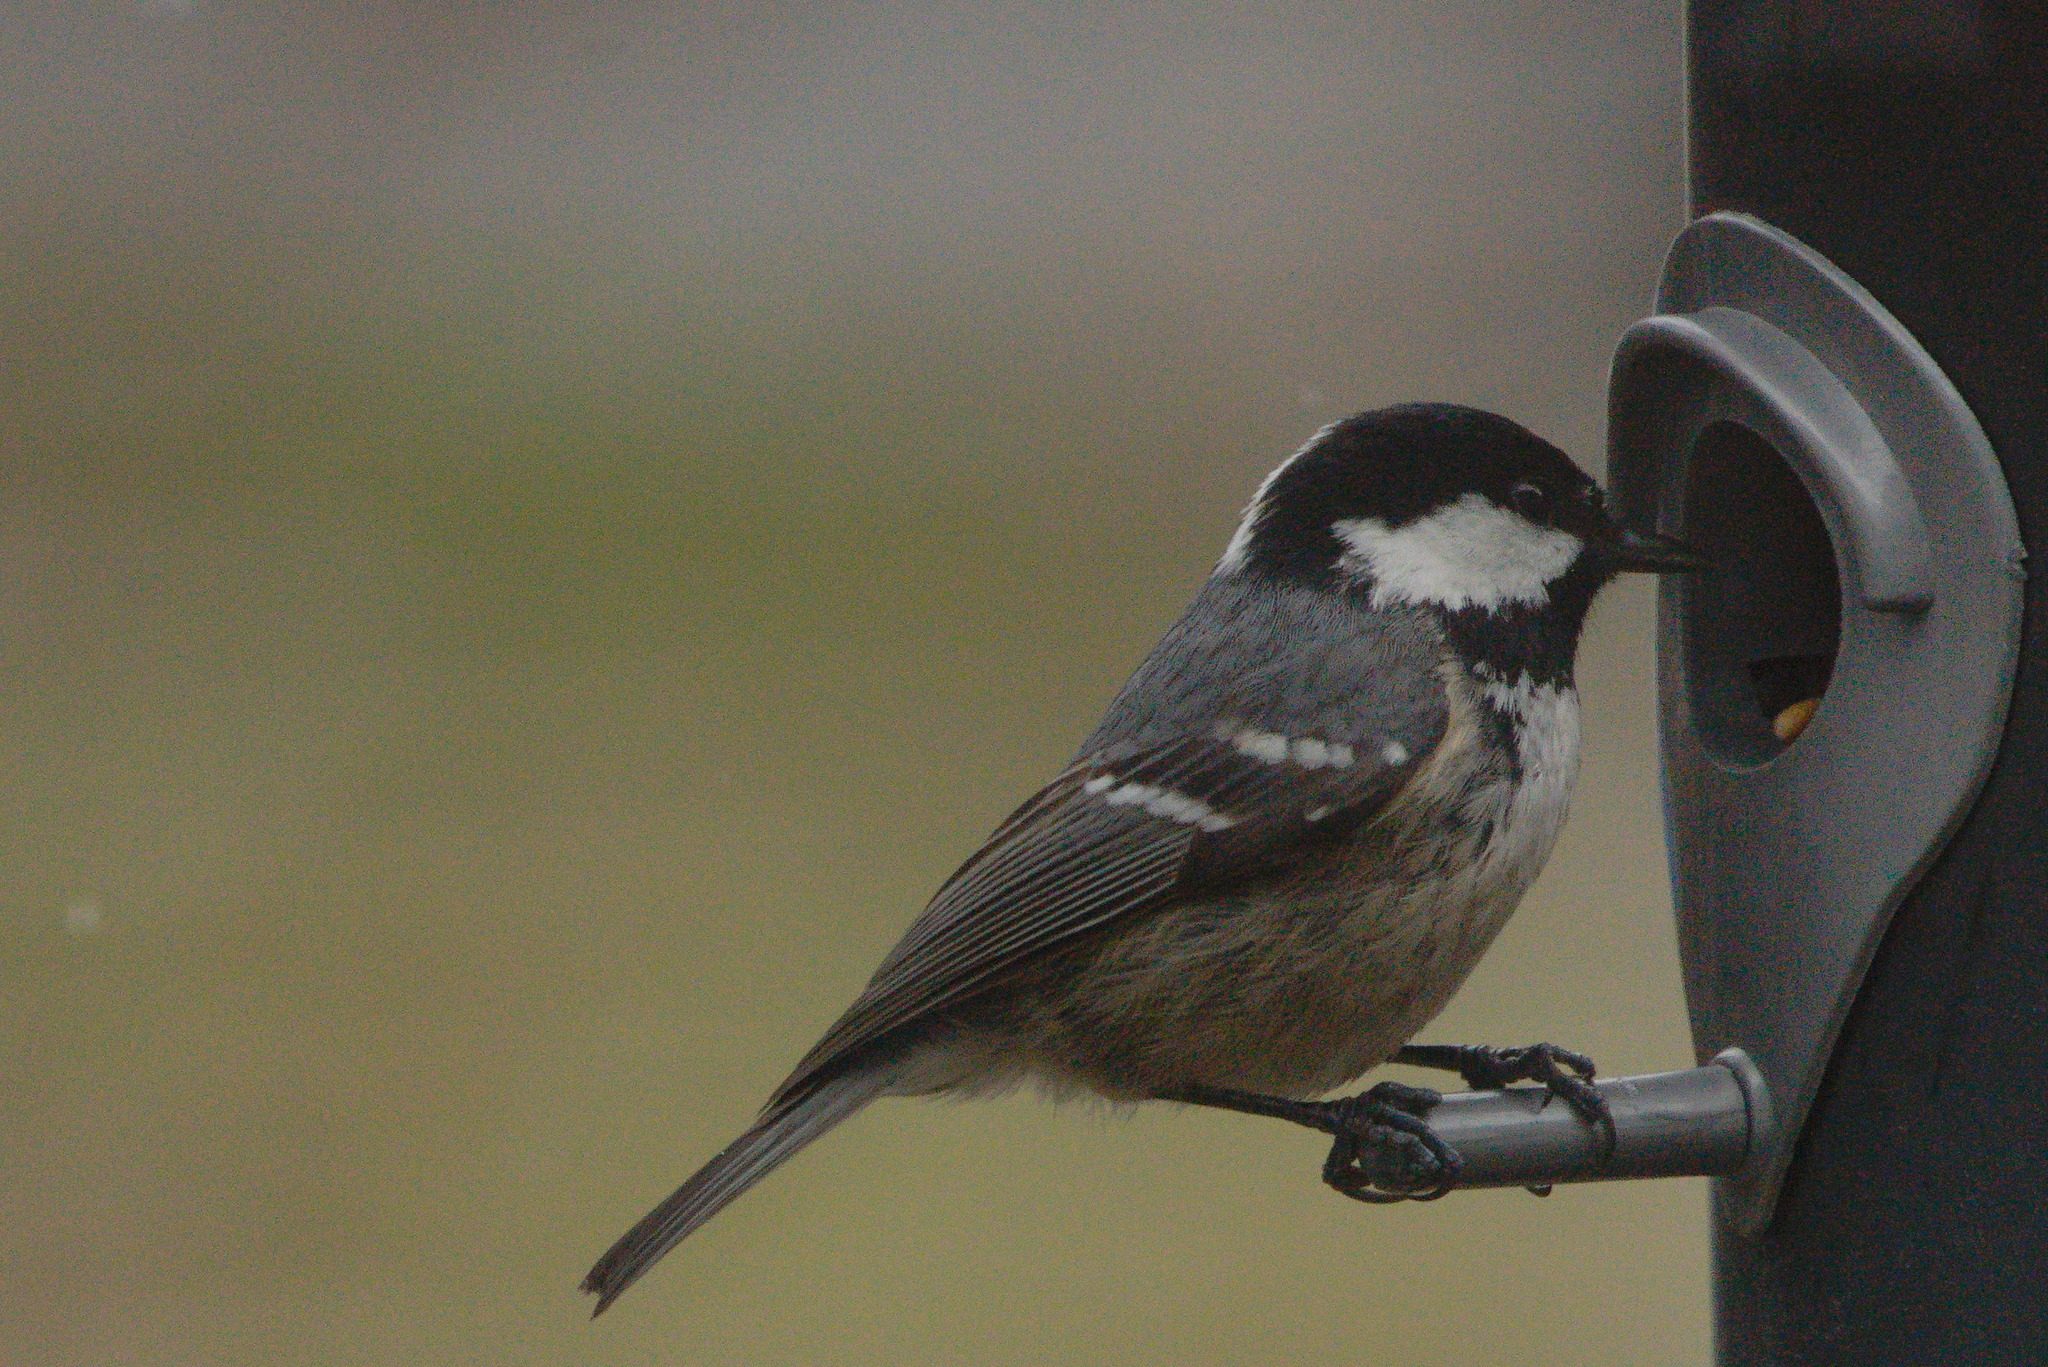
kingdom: Animalia
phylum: Chordata
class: Aves
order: Passeriformes
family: Paridae
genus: Periparus
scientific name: Periparus ater
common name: Coal tit
